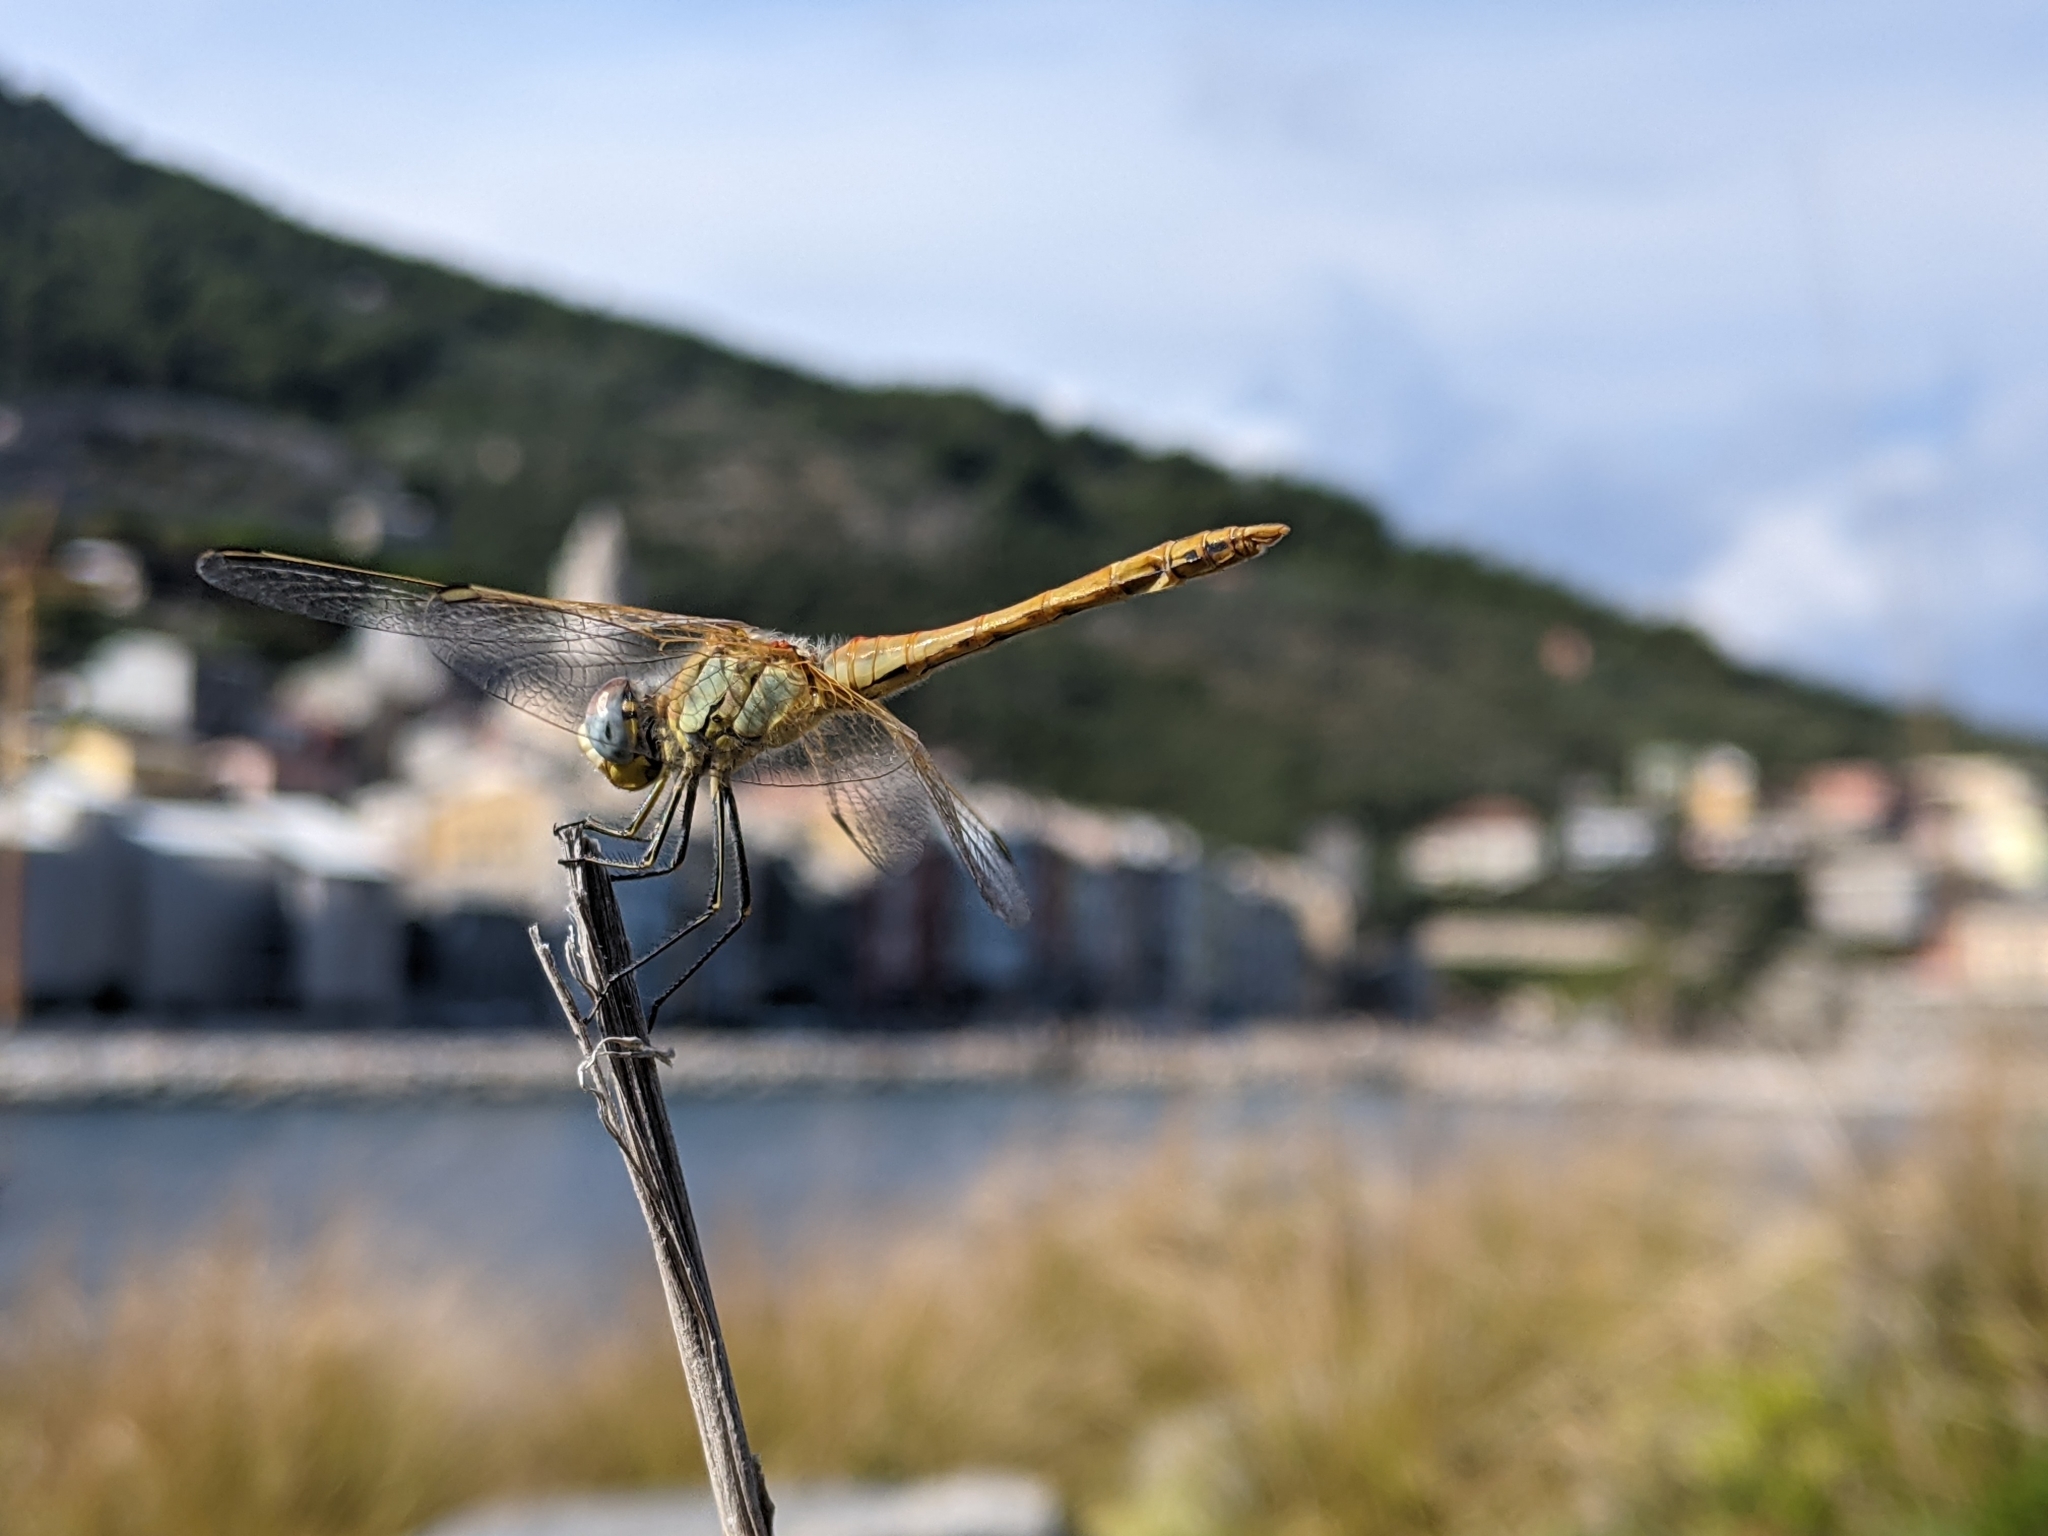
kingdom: Animalia
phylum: Arthropoda
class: Insecta
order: Odonata
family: Libellulidae
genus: Sympetrum
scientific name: Sympetrum fonscolombii
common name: Red-veined darter
